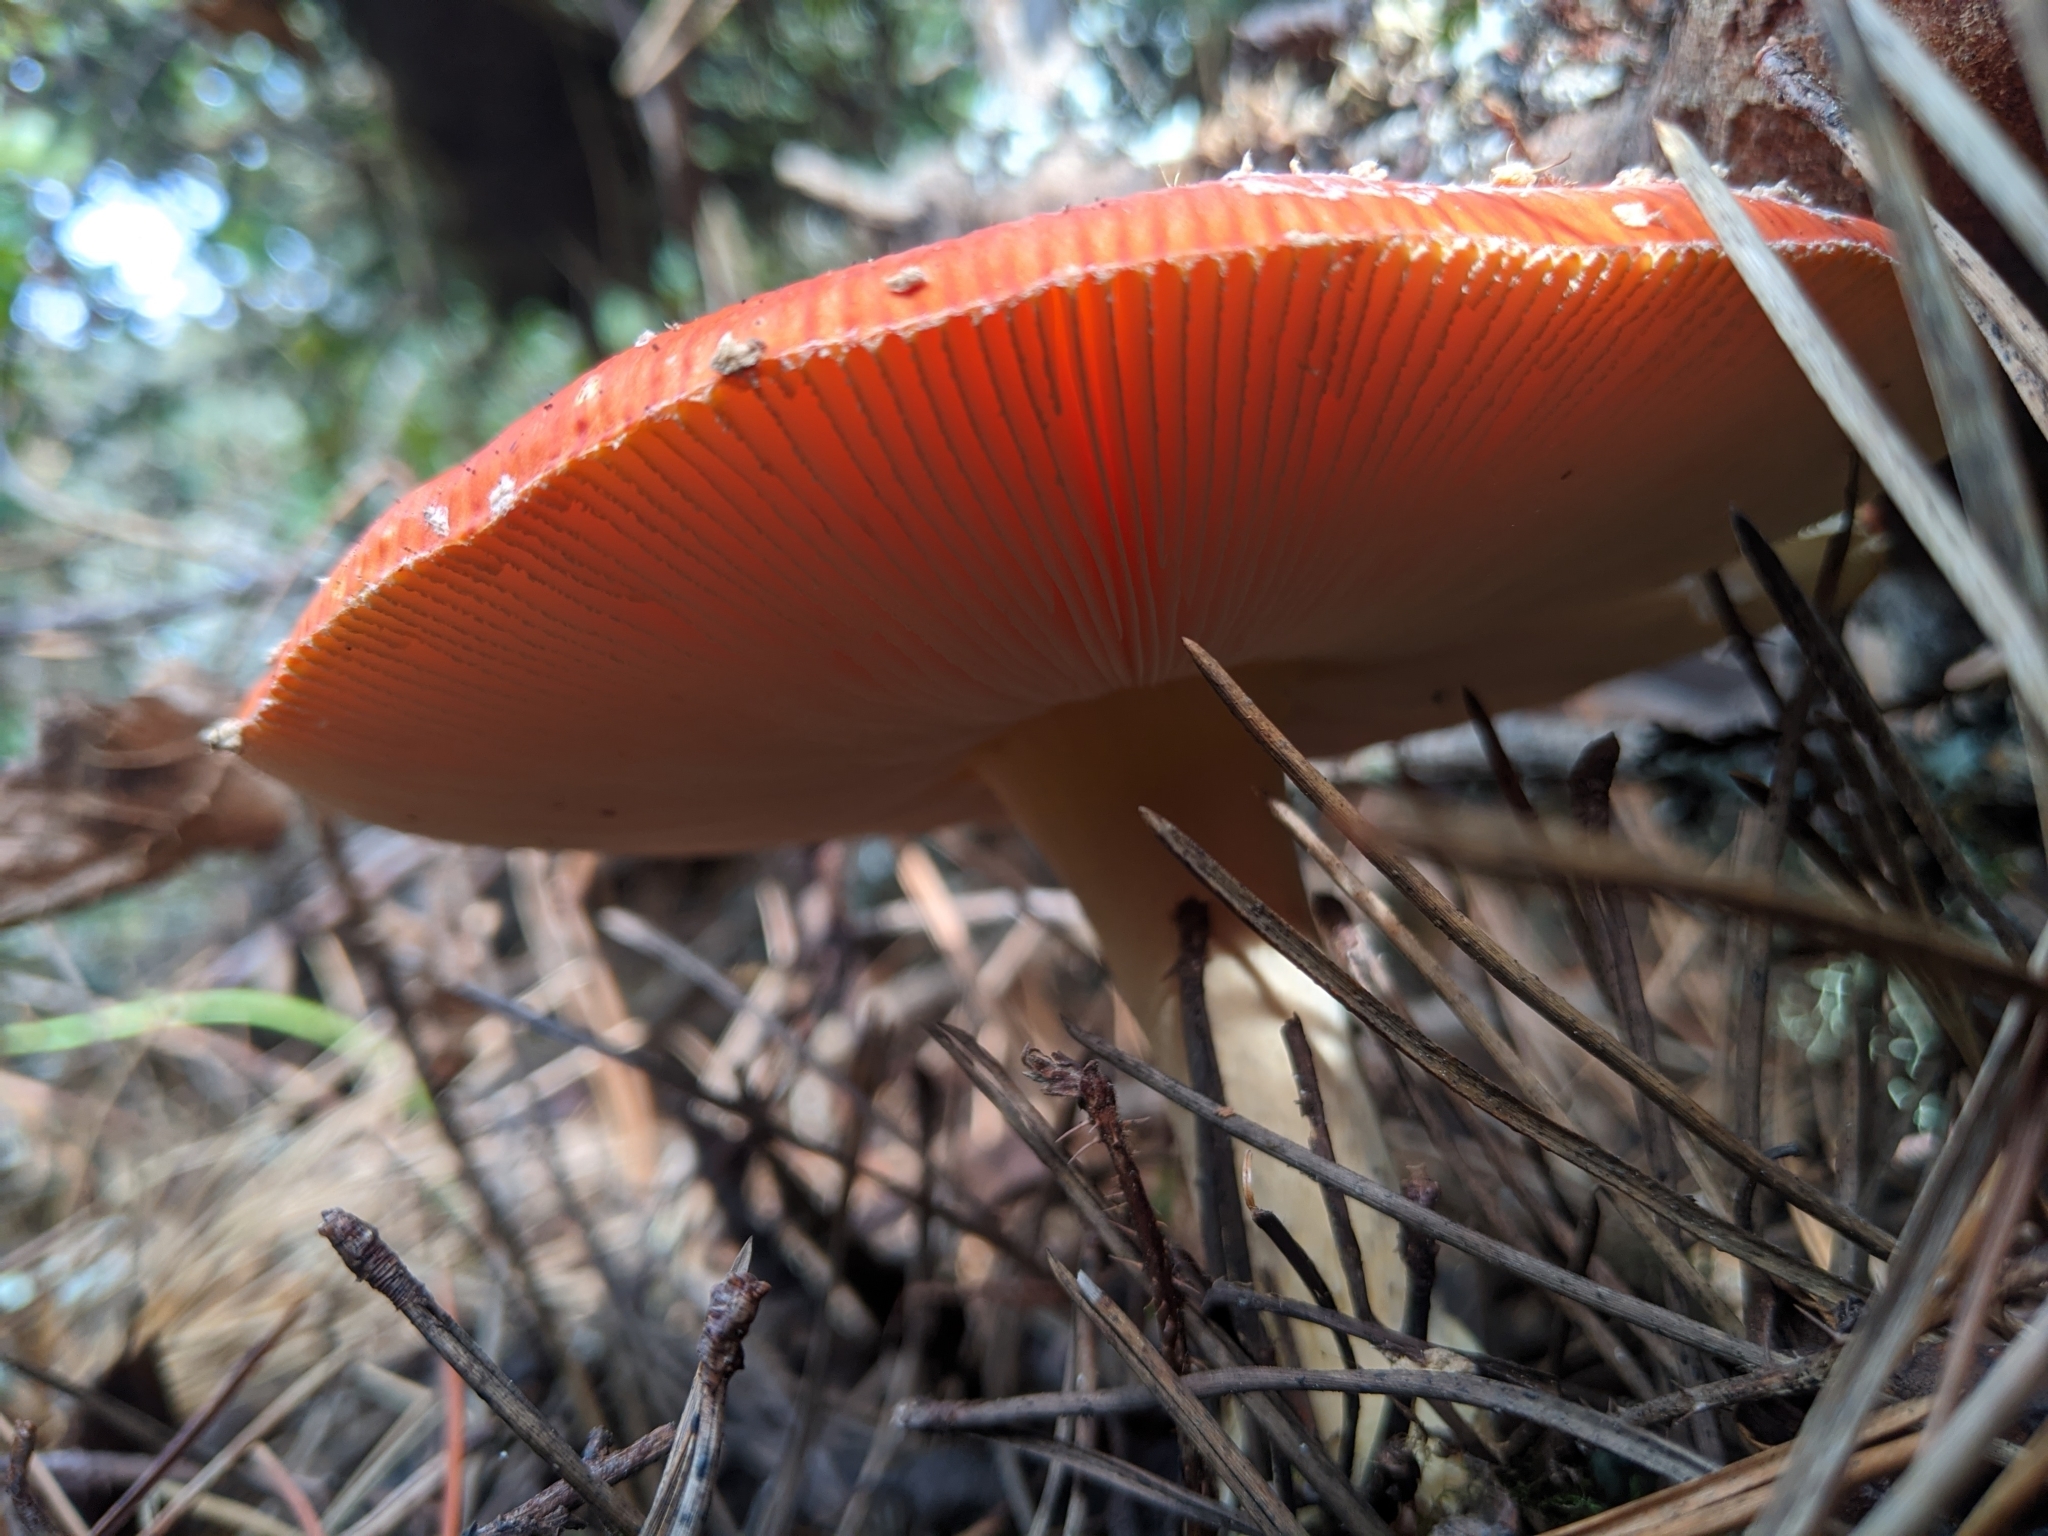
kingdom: Fungi
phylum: Basidiomycota
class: Agaricomycetes
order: Agaricales
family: Amanitaceae
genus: Amanita
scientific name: Amanita muscaria
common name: Fly agaric
